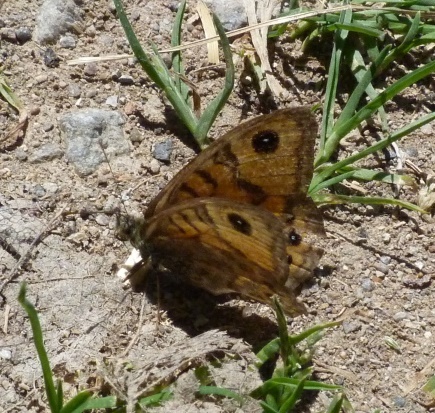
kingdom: Animalia
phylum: Arthropoda
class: Insecta
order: Lepidoptera
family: Nymphalidae
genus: Pararge
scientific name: Pararge Lasiommata megera
